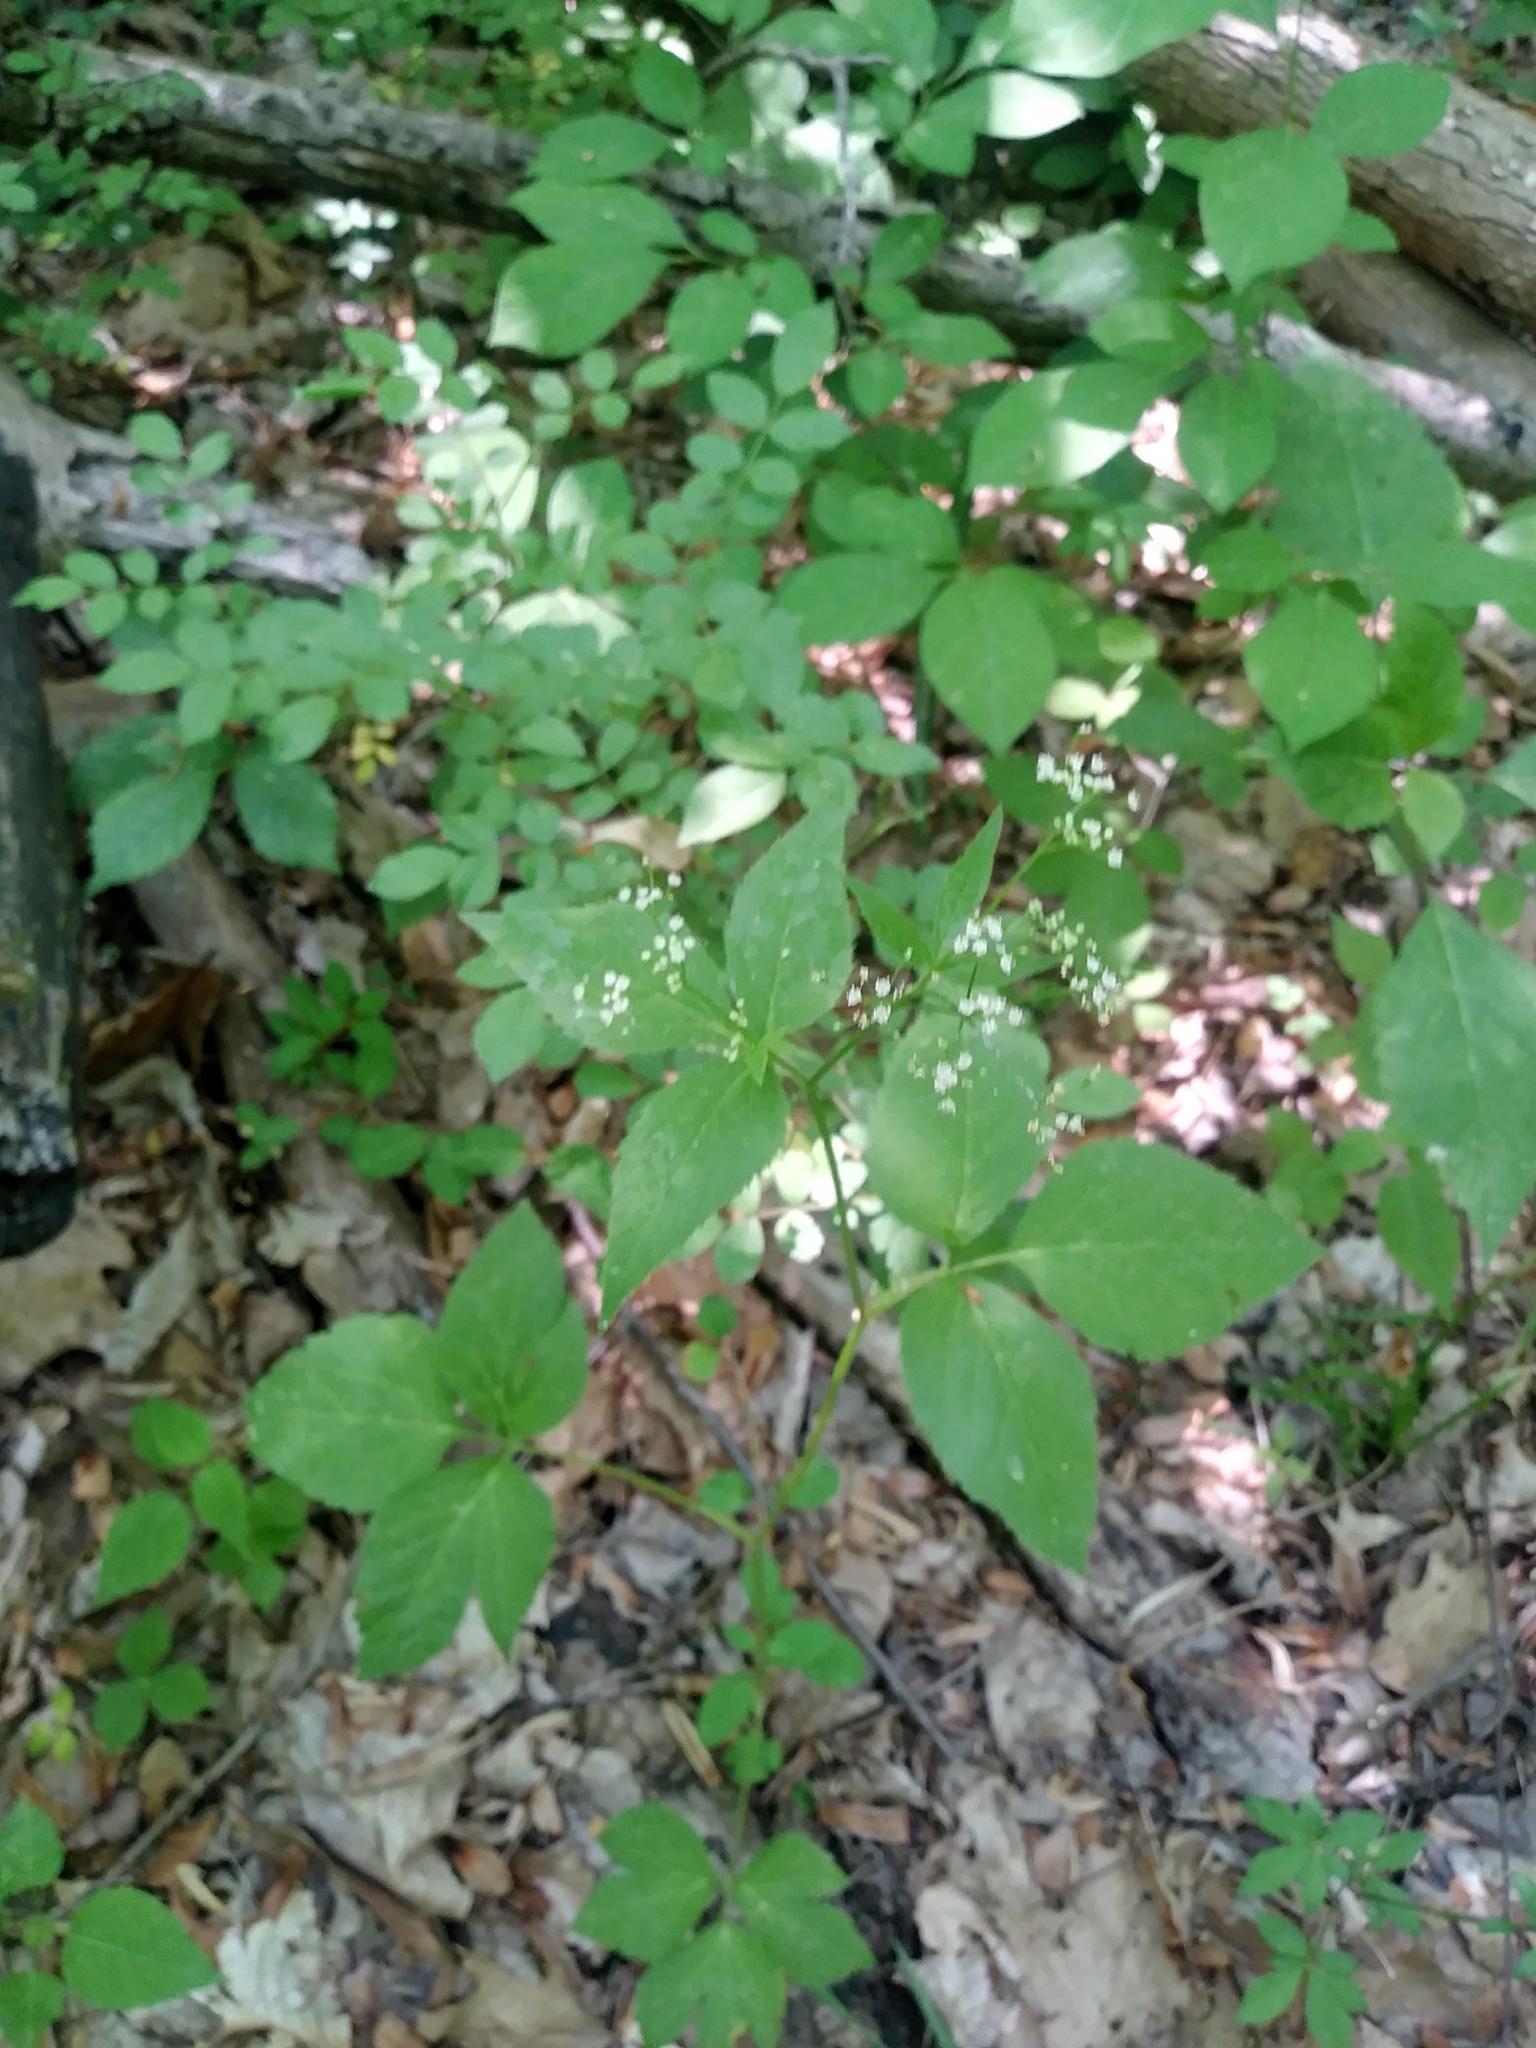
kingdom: Plantae
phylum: Tracheophyta
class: Magnoliopsida
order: Apiales
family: Apiaceae
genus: Aegopodium
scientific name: Aegopodium podagraria
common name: Ground-elder
